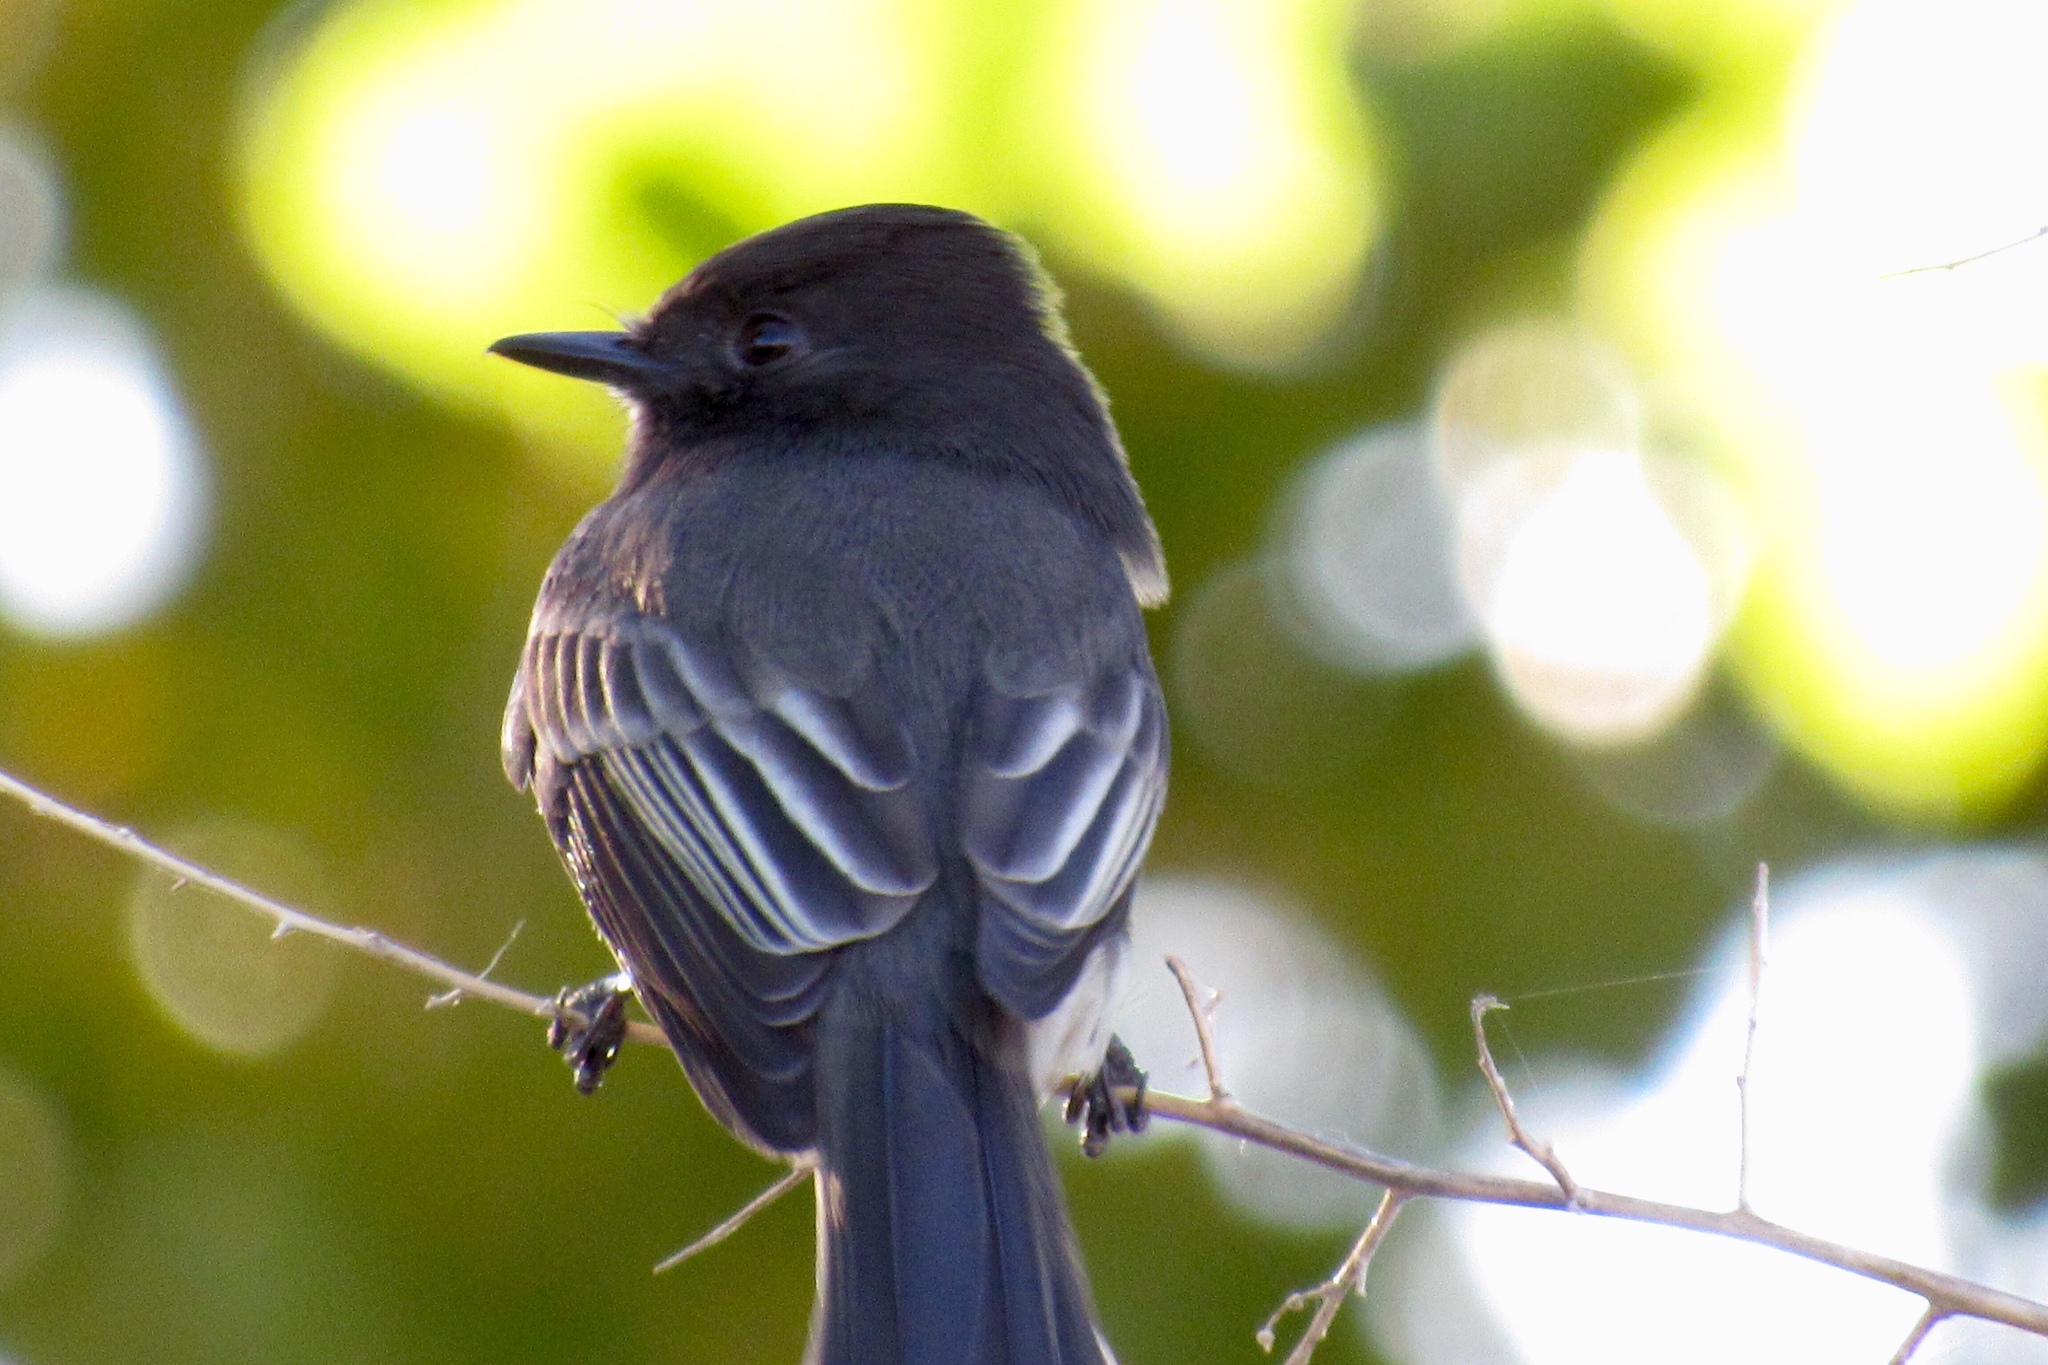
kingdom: Animalia
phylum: Chordata
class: Aves
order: Passeriformes
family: Tyrannidae
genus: Sayornis
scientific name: Sayornis nigricans
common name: Black phoebe
